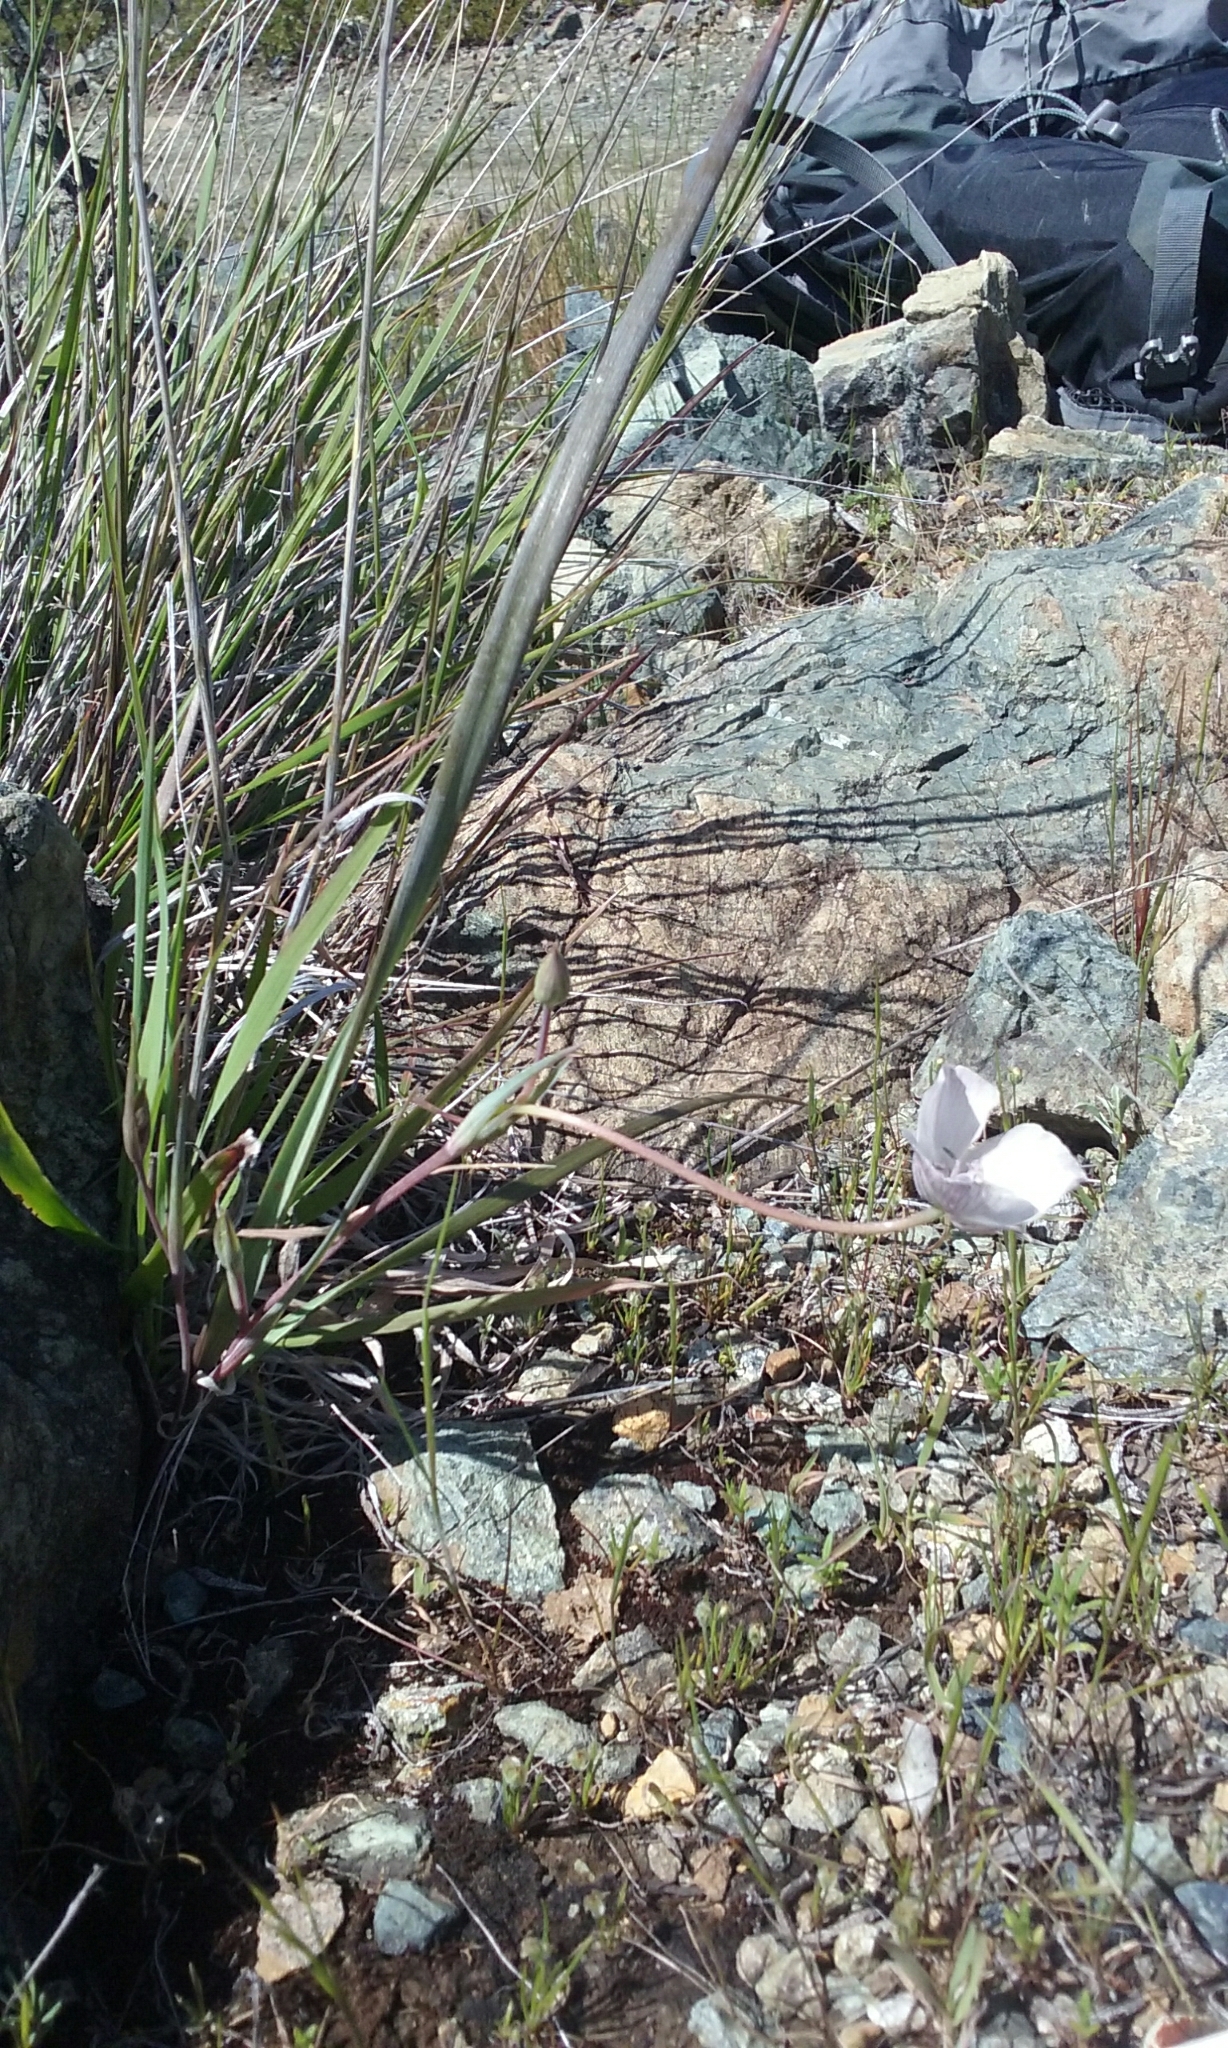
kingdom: Plantae
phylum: Tracheophyta
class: Liliopsida
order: Liliales
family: Liliaceae
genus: Calochortus
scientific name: Calochortus umbellatus
